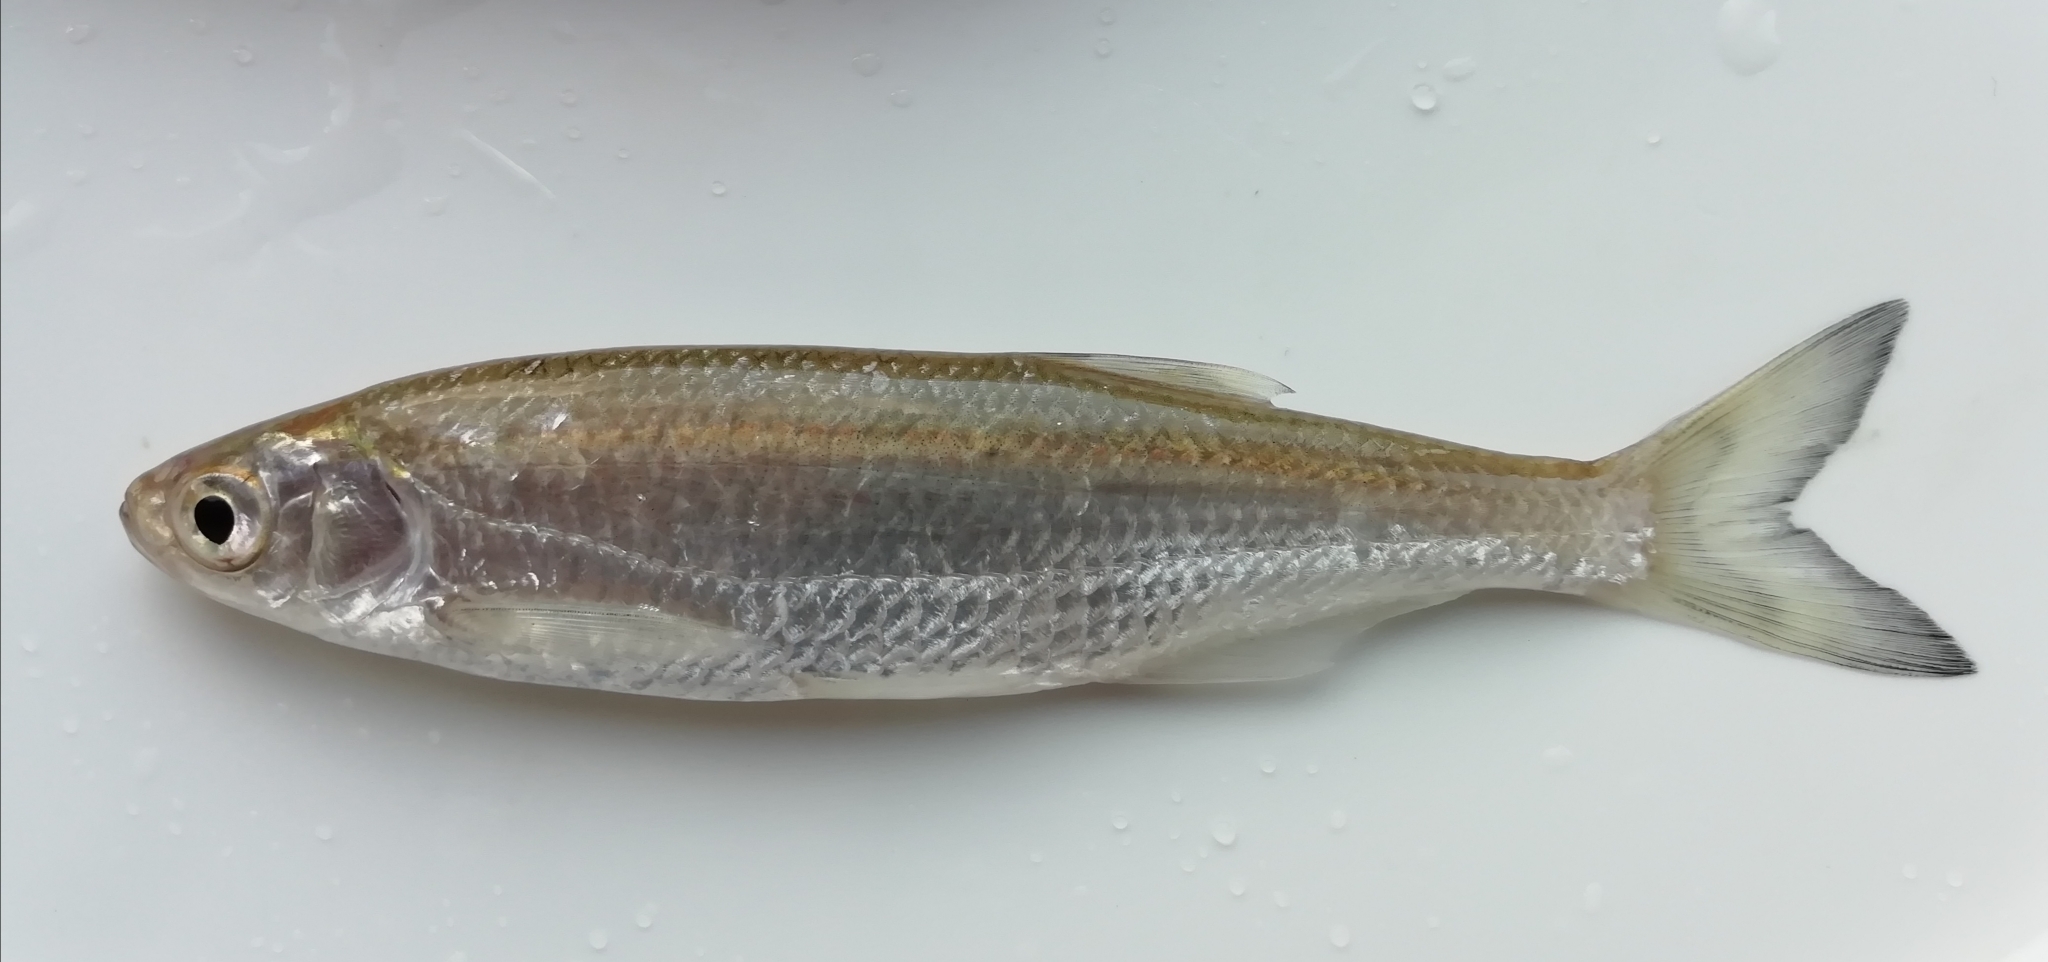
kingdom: Animalia
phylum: Chordata
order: Cypriniformes
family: Cyprinidae
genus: Alburnus
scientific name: Alburnus alburnus
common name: Bleak
